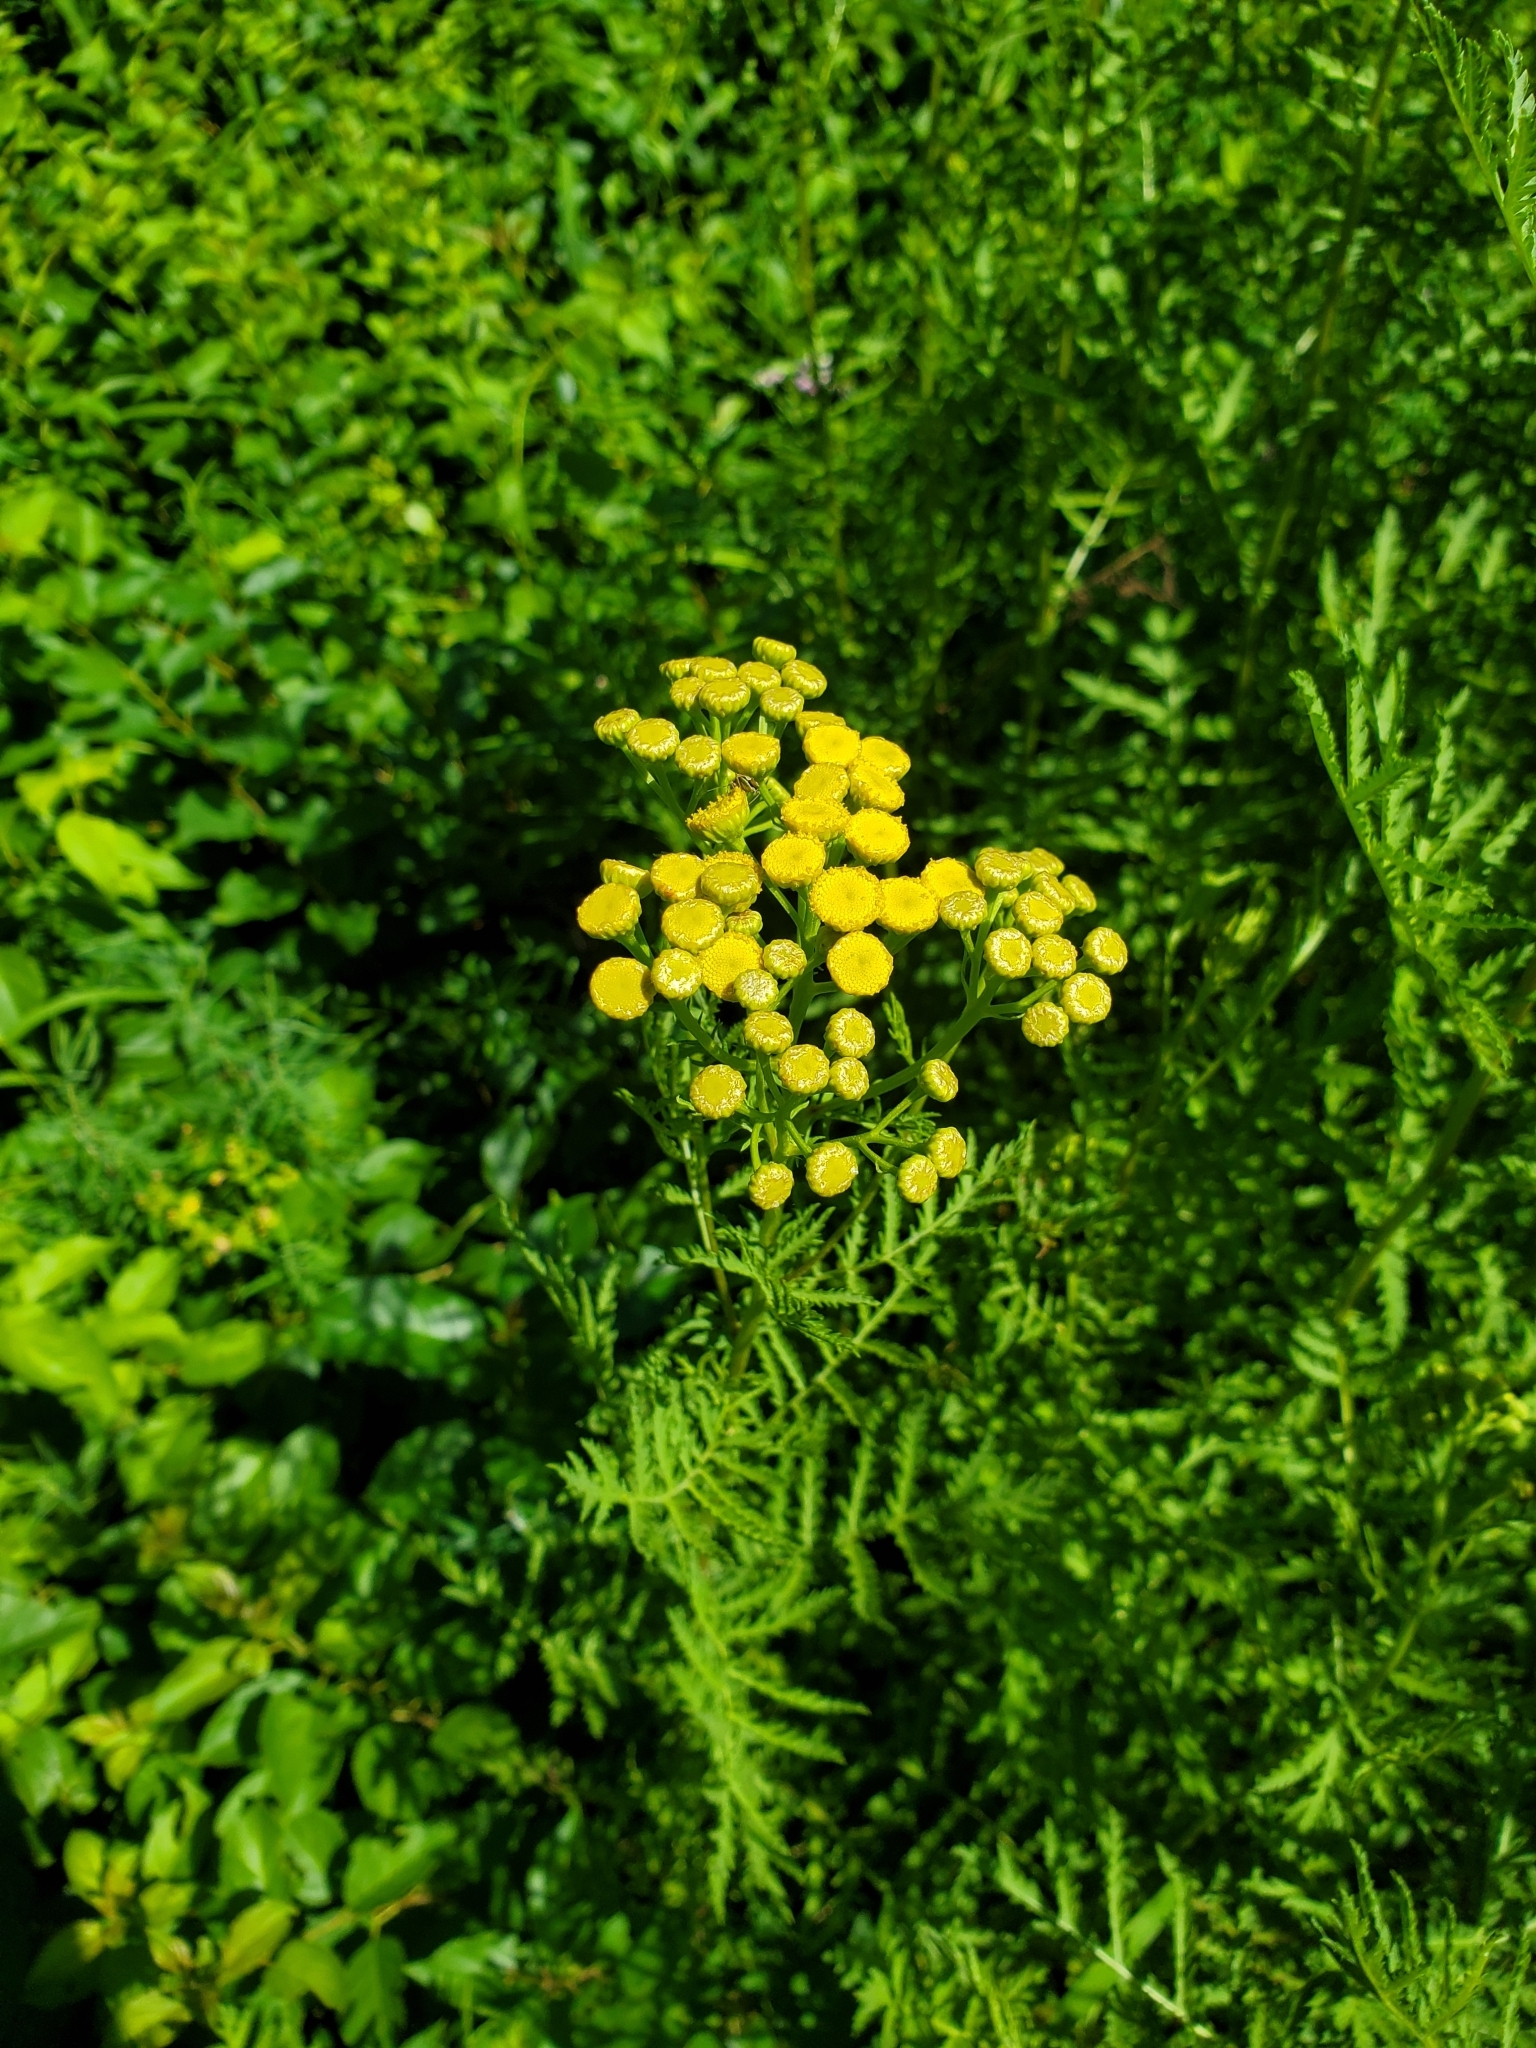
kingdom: Plantae
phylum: Tracheophyta
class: Magnoliopsida
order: Asterales
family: Asteraceae
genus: Tanacetum
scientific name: Tanacetum vulgare
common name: Common tansy
